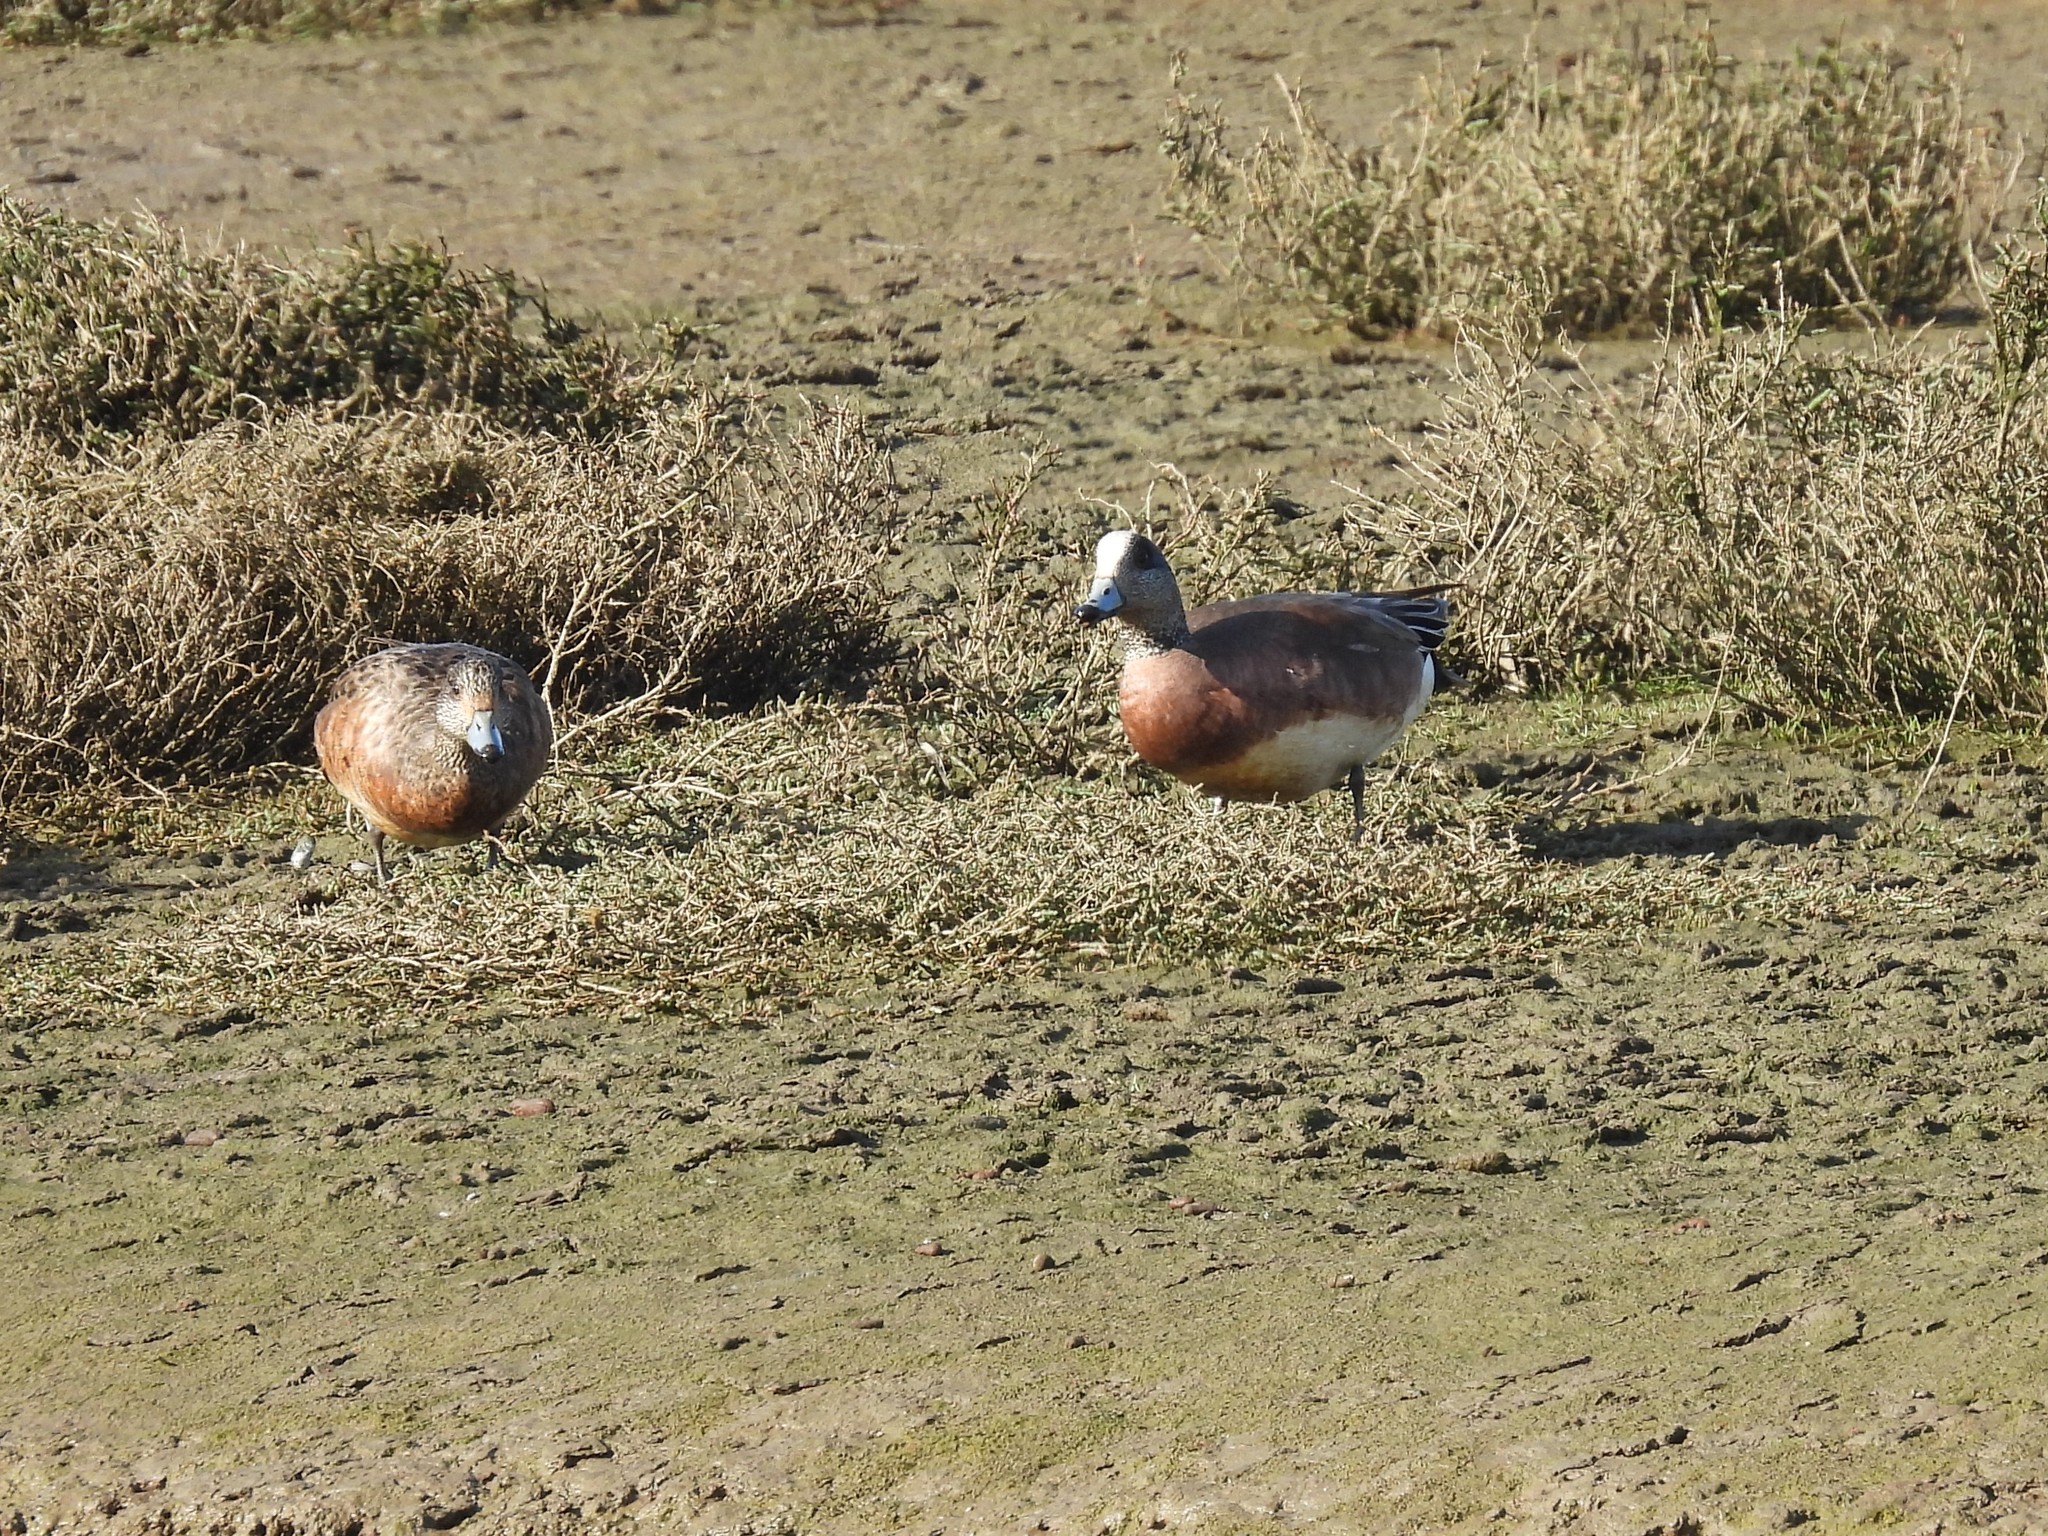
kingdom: Animalia
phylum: Chordata
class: Aves
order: Anseriformes
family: Anatidae
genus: Mareca
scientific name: Mareca americana
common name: American wigeon
